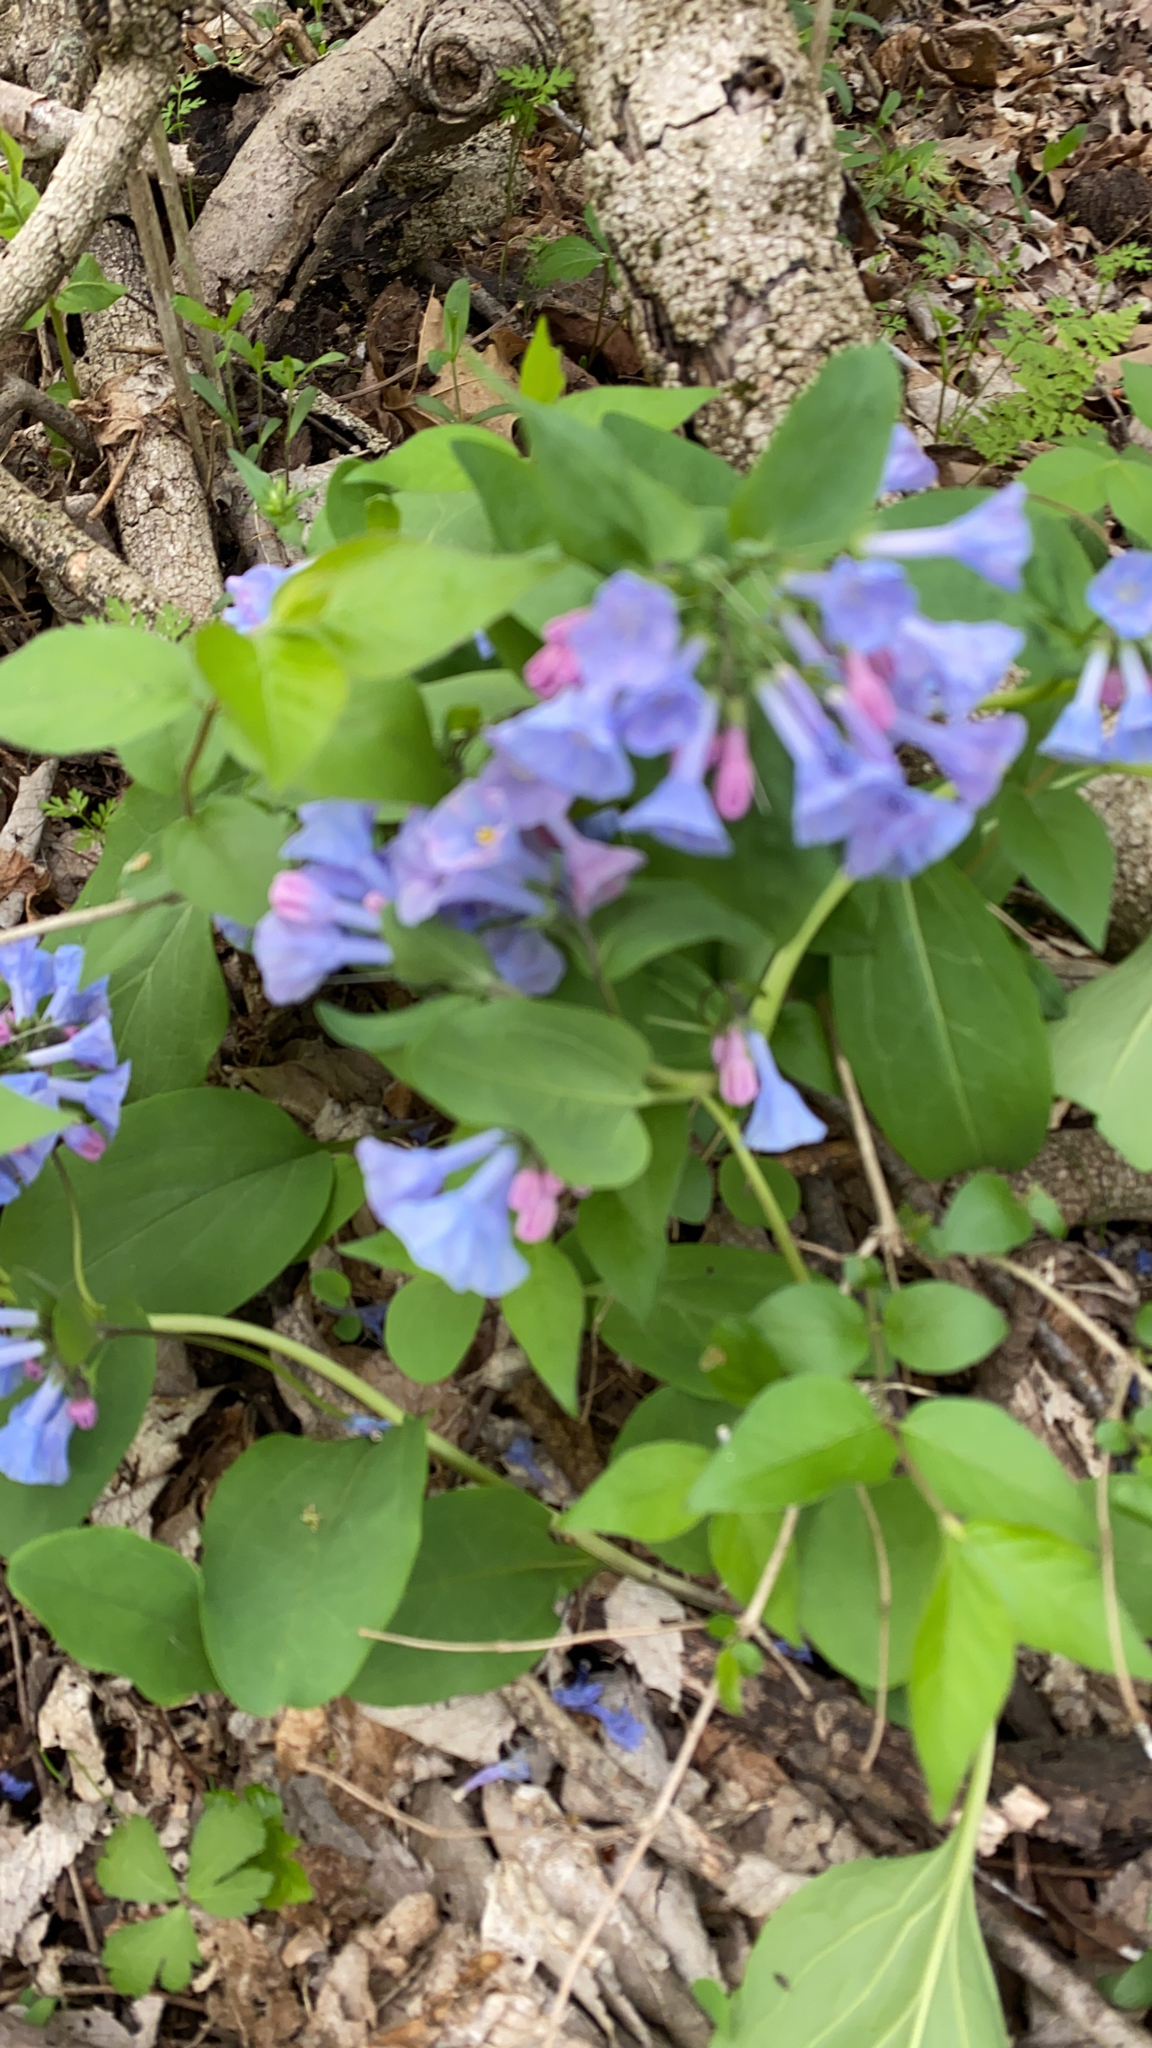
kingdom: Plantae
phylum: Tracheophyta
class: Magnoliopsida
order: Boraginales
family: Boraginaceae
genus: Mertensia
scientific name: Mertensia virginica
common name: Virginia bluebells
